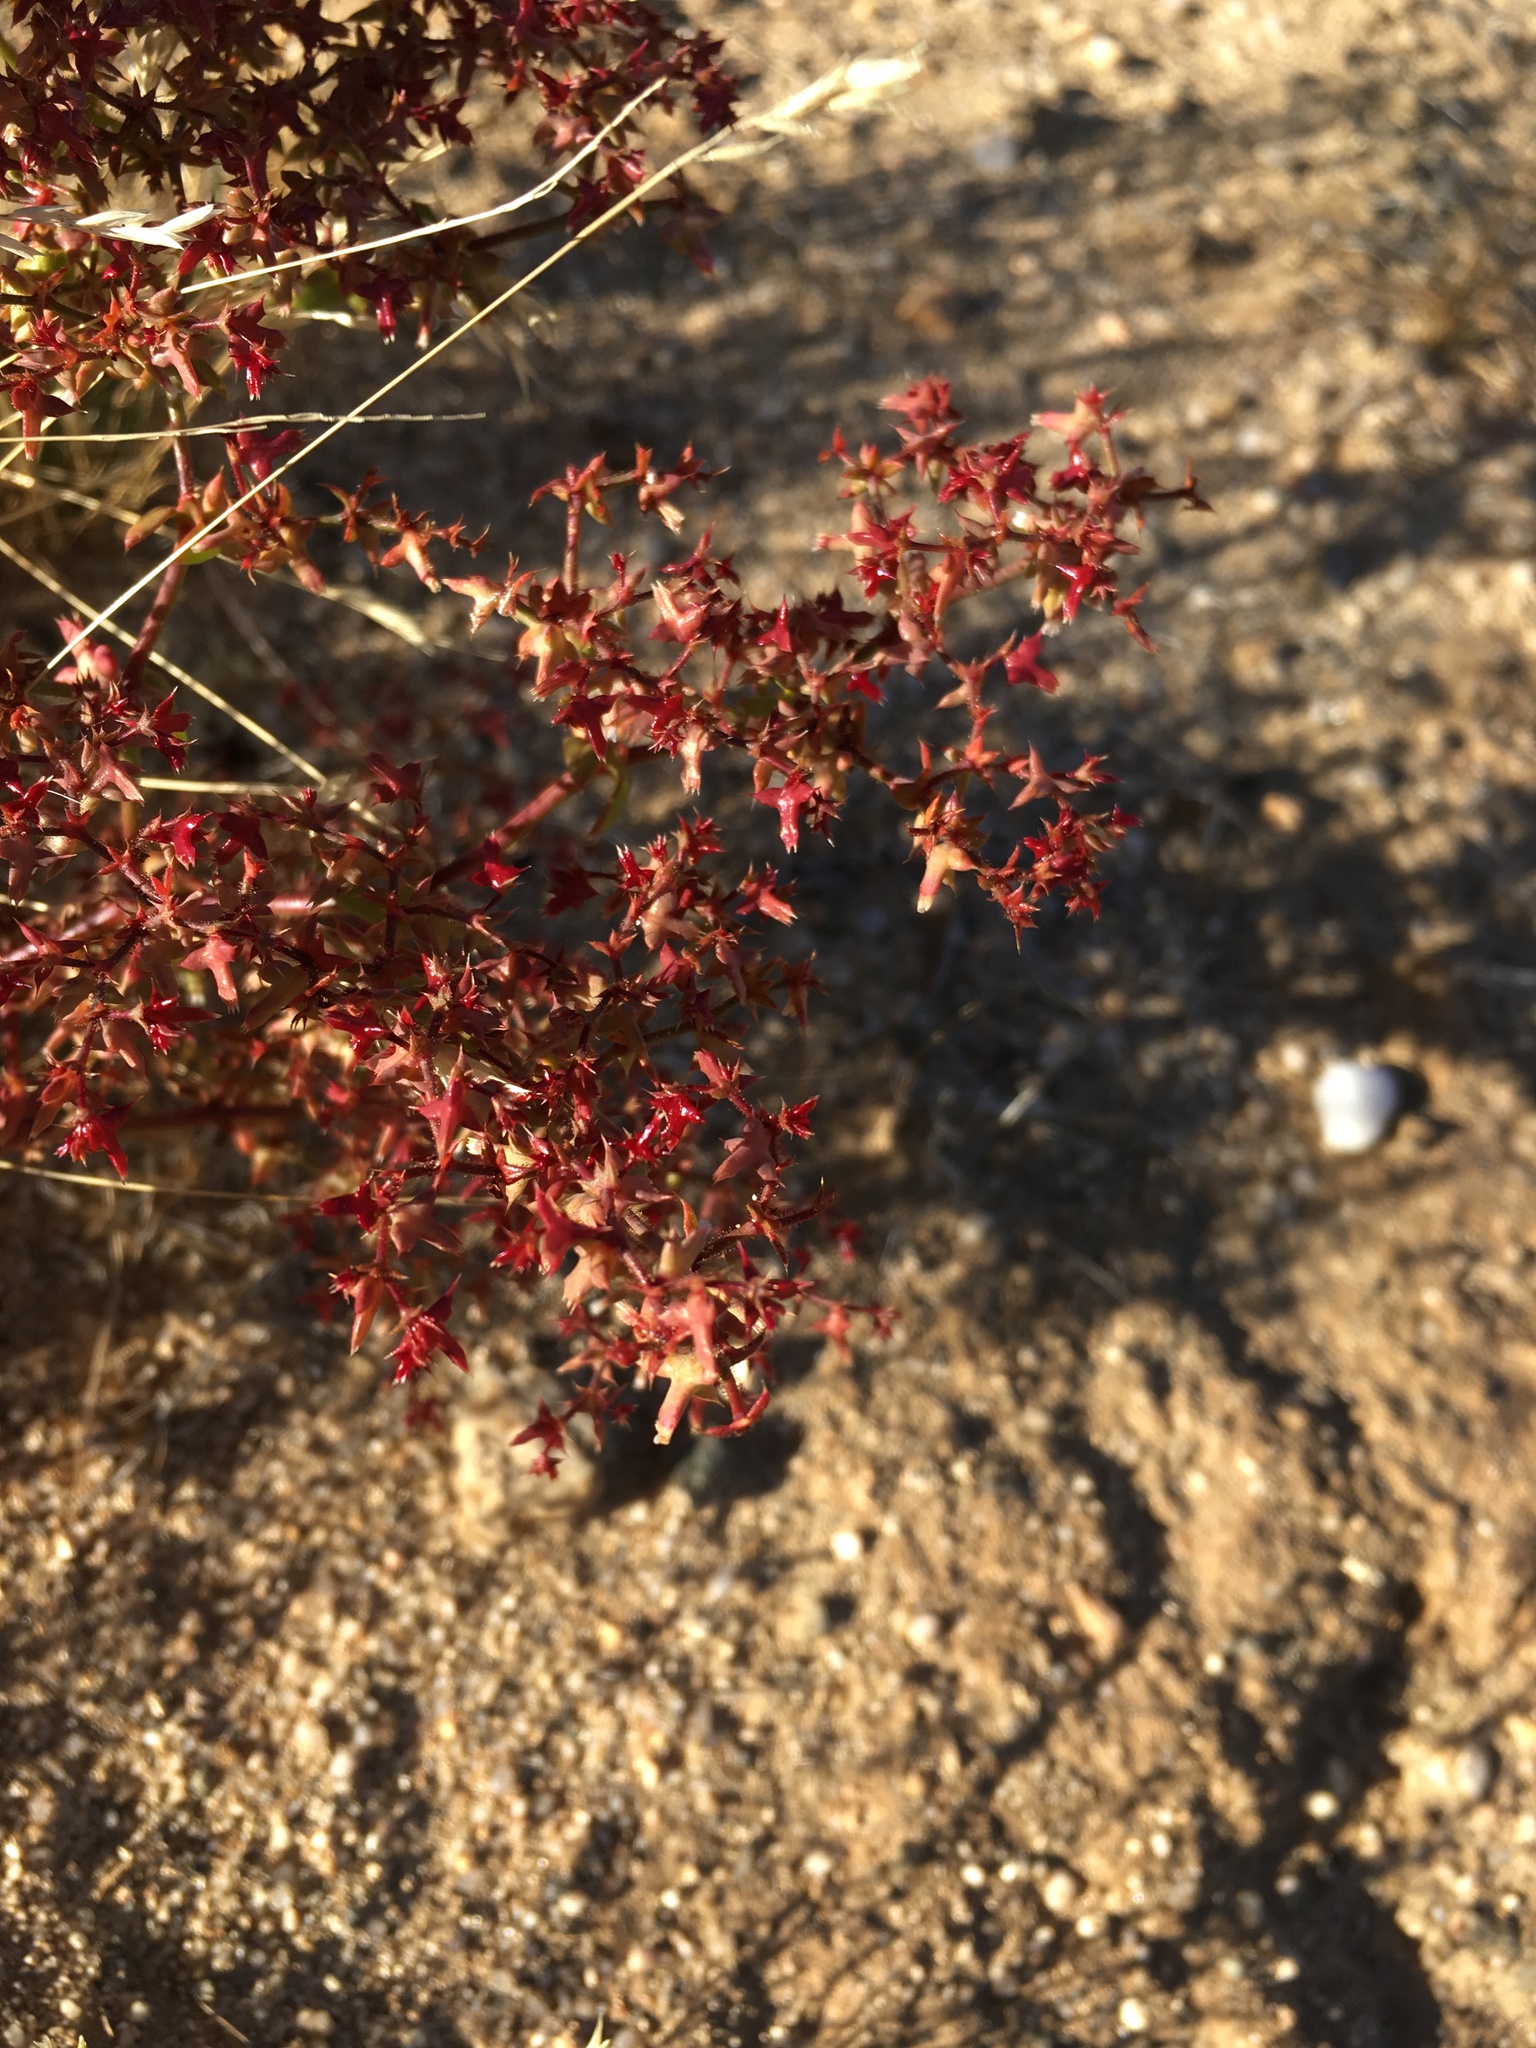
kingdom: Plantae
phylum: Tracheophyta
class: Magnoliopsida
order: Caryophyllales
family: Polygonaceae
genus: Centrostegia
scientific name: Centrostegia thurberi
